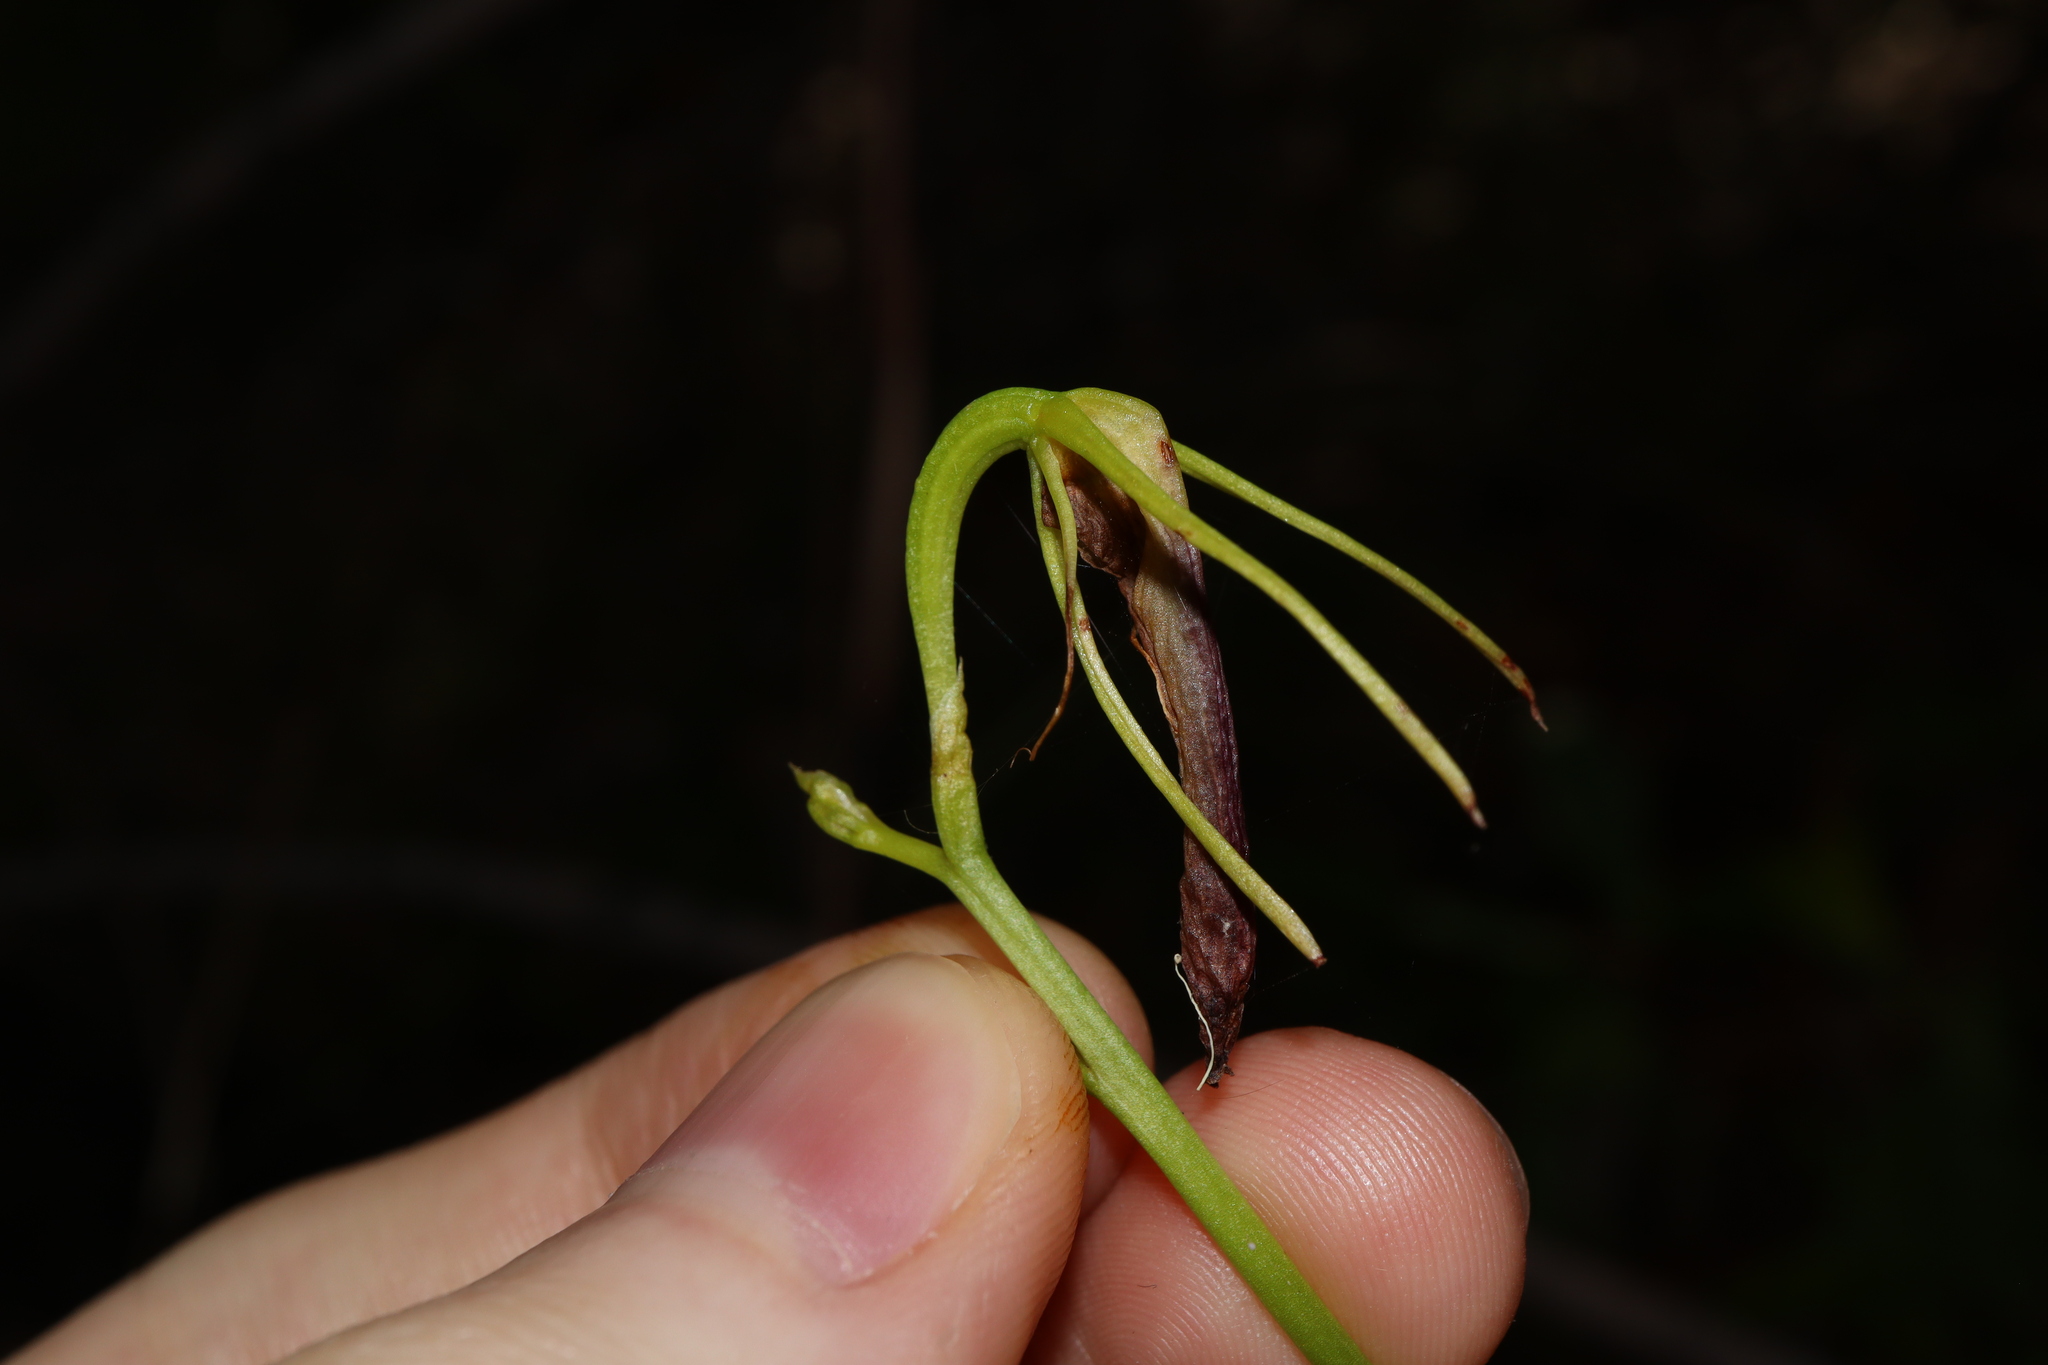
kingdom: Plantae
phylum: Tracheophyta
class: Liliopsida
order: Asparagales
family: Orchidaceae
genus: Cryptostylis
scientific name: Cryptostylis subulata
